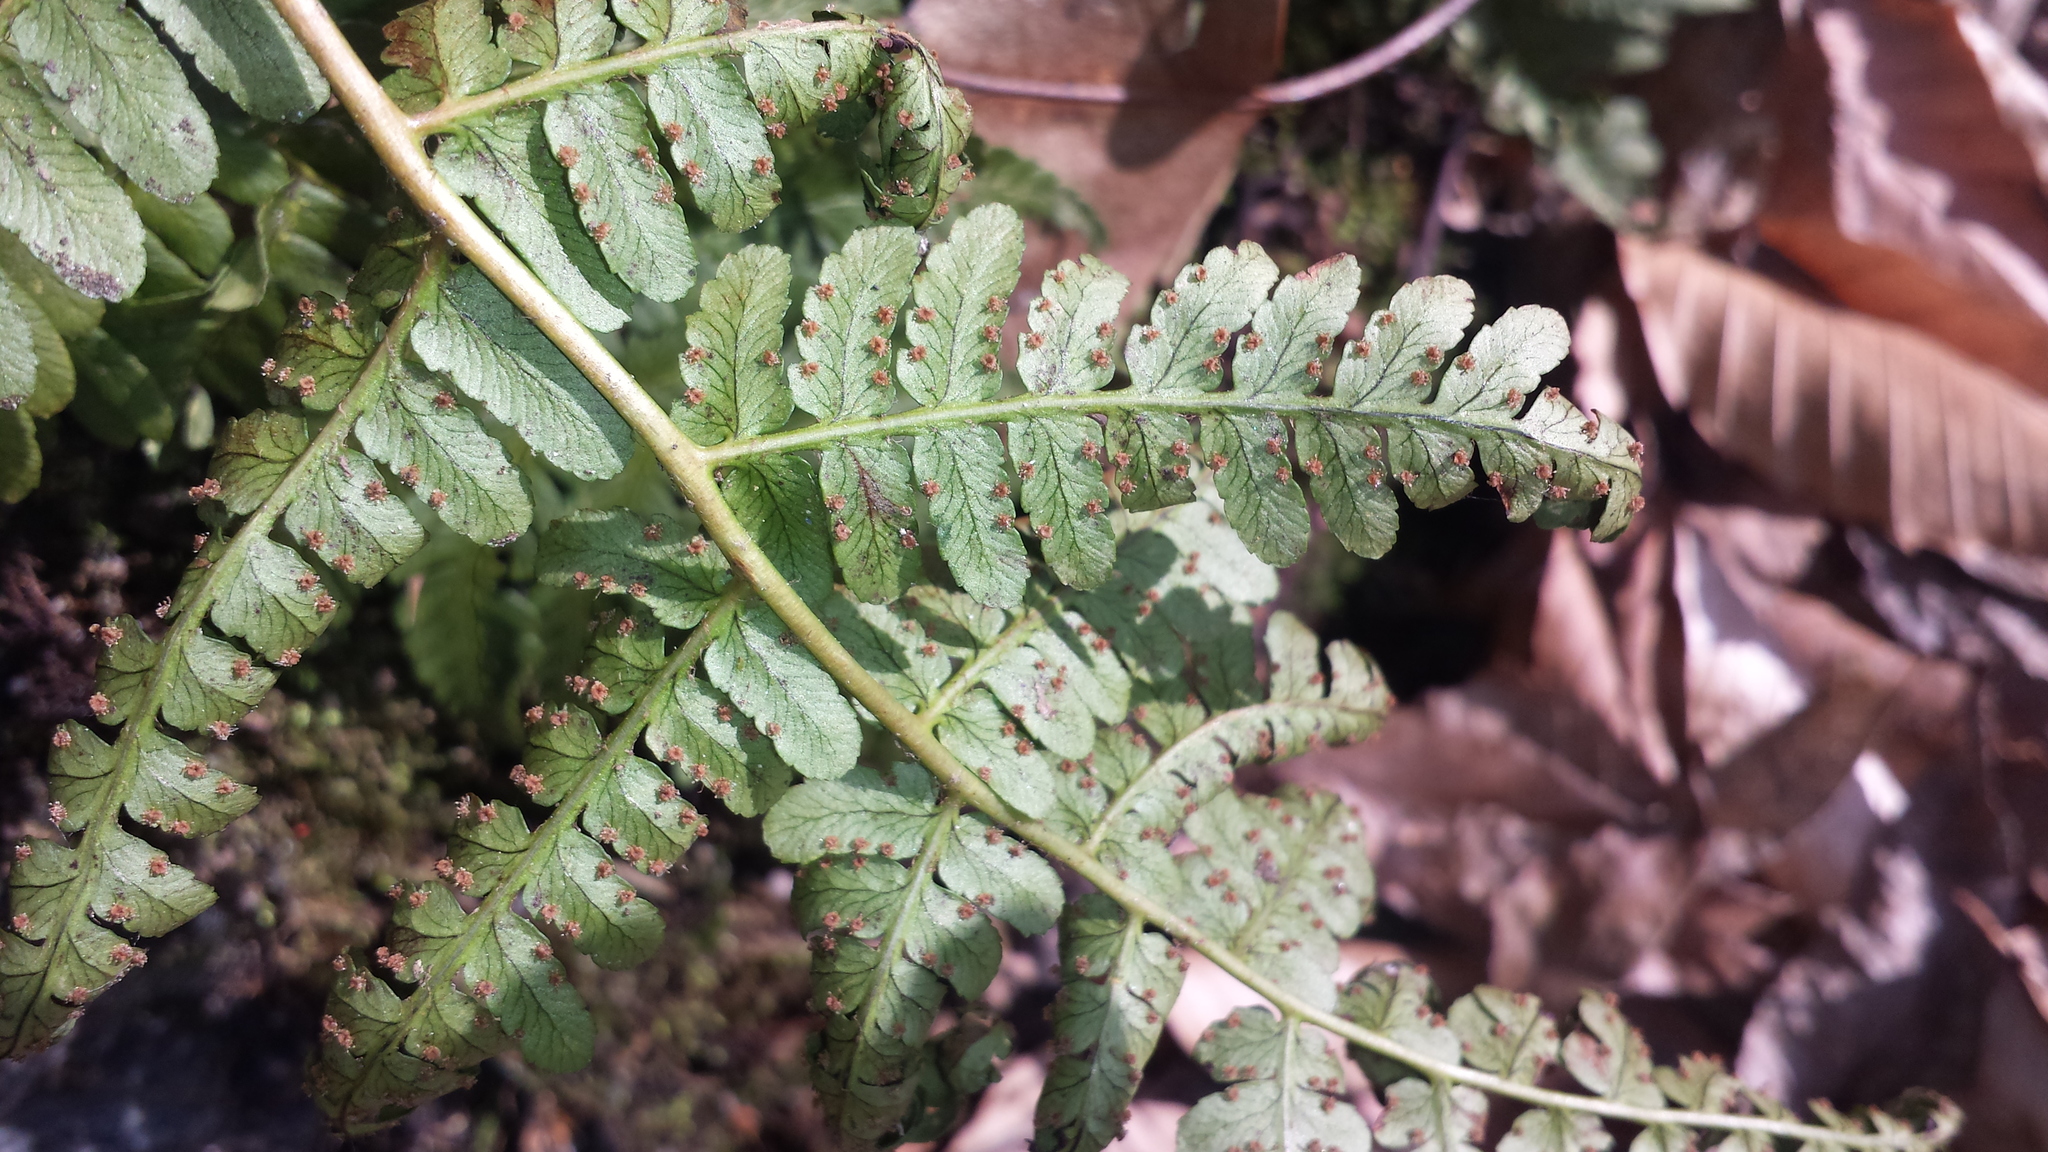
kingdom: Plantae
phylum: Tracheophyta
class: Polypodiopsida
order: Polypodiales
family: Dryopteridaceae
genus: Dryopteris
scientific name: Dryopteris marginalis
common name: Marginal wood fern
